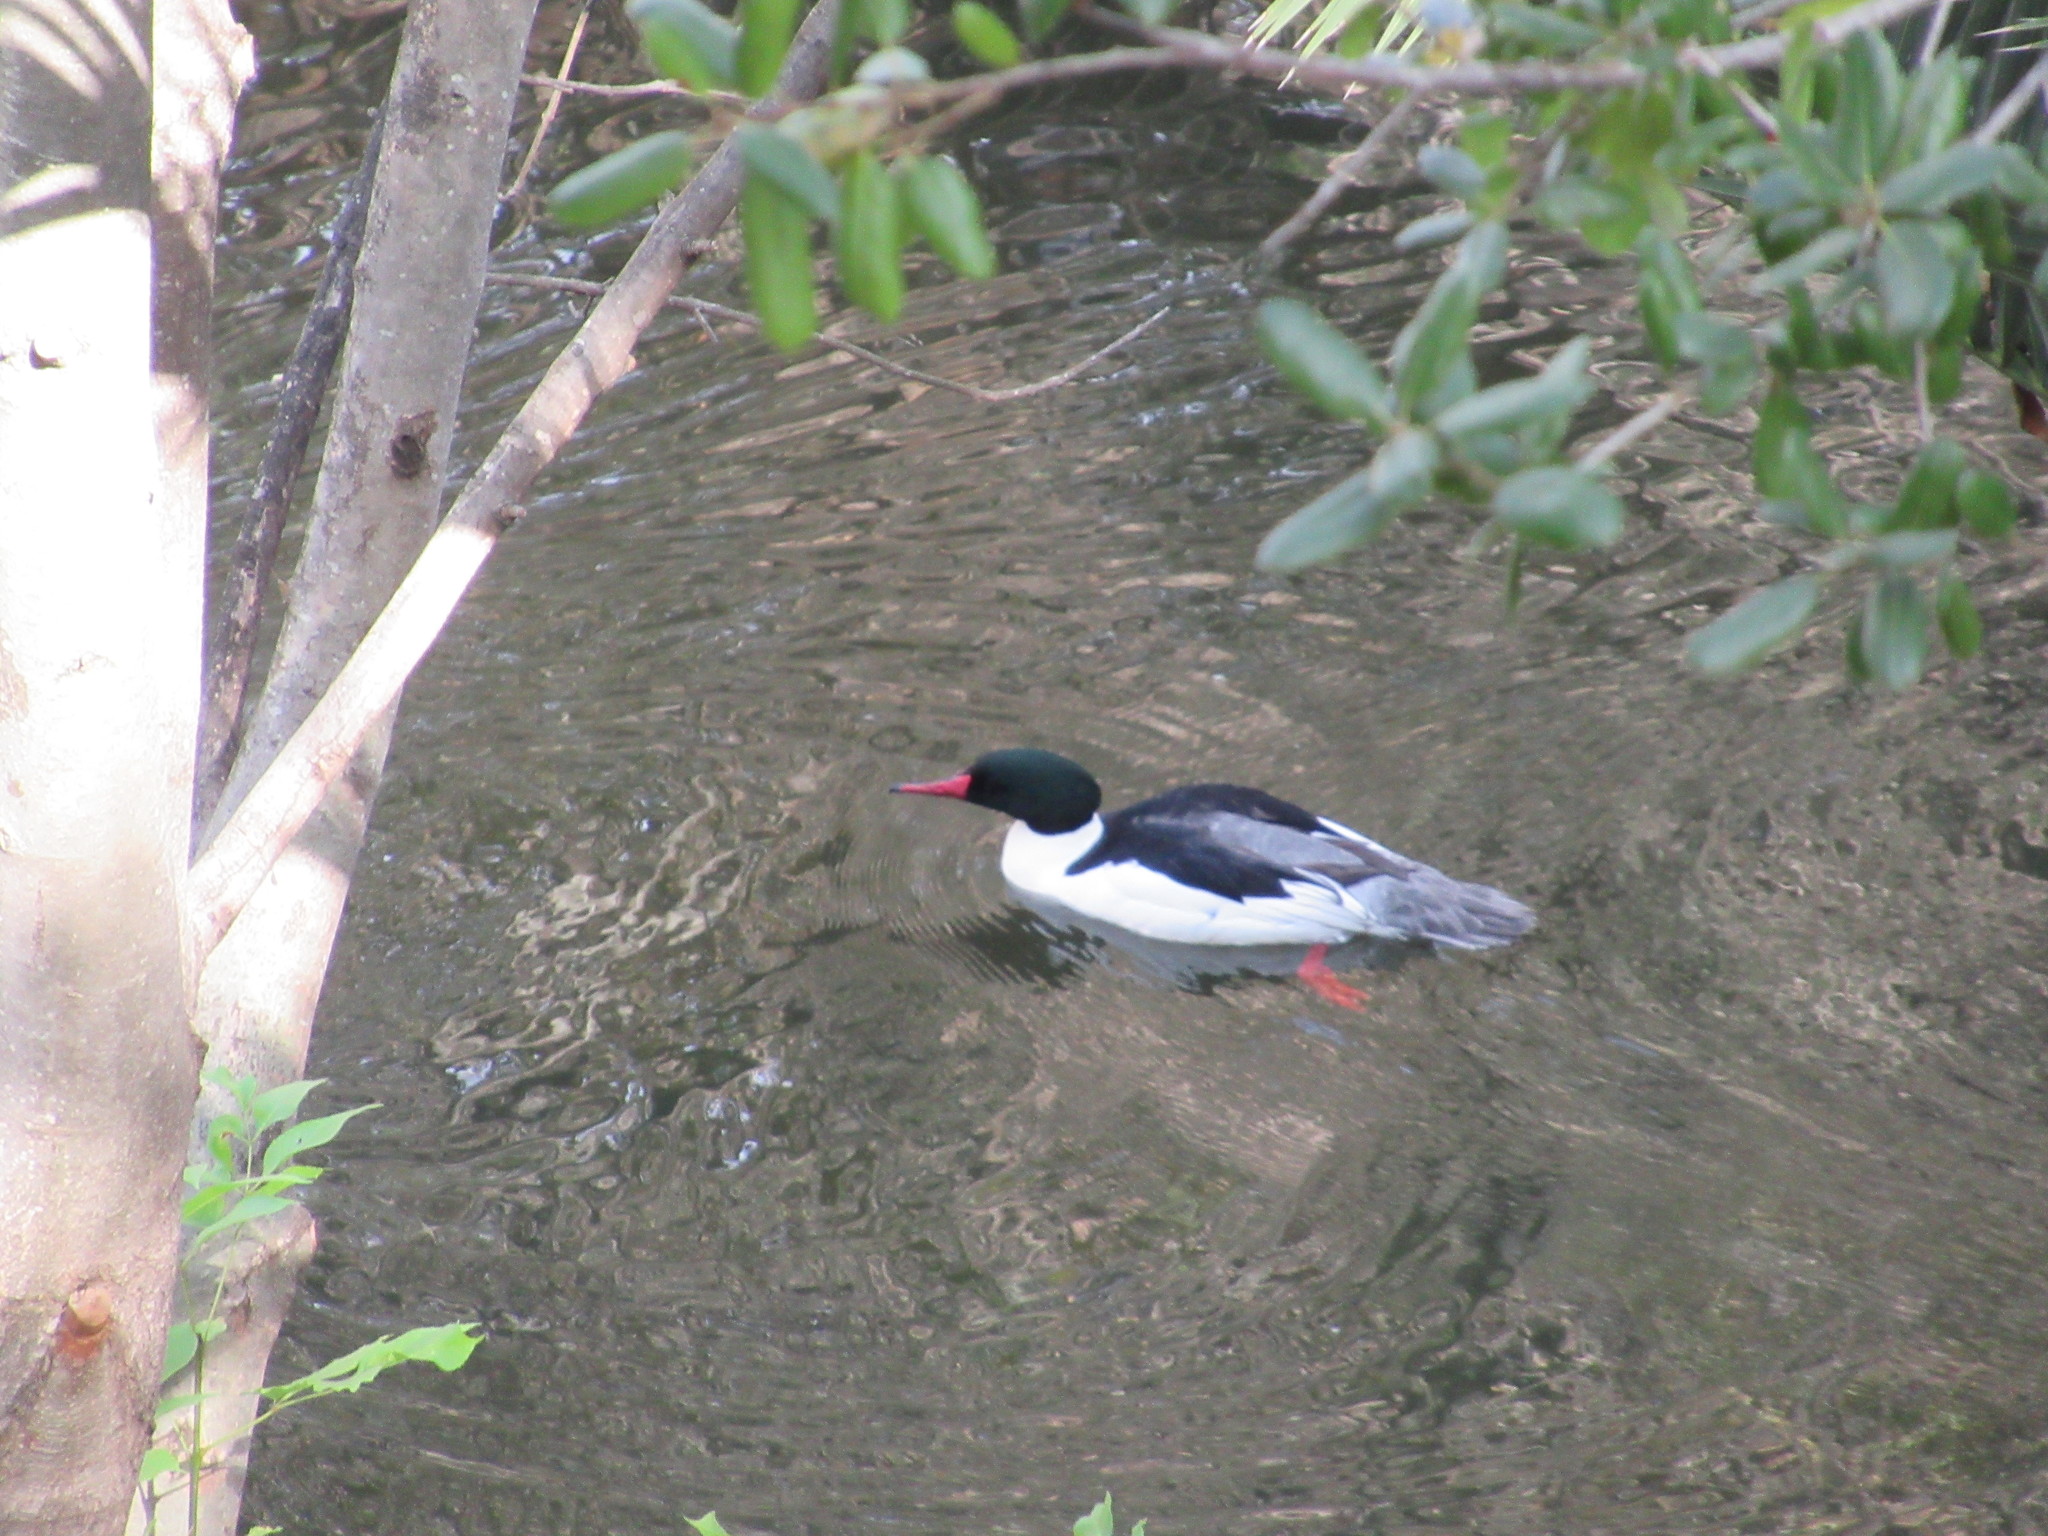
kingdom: Animalia
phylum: Chordata
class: Aves
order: Anseriformes
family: Anatidae
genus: Mergus
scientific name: Mergus merganser
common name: Common merganser
